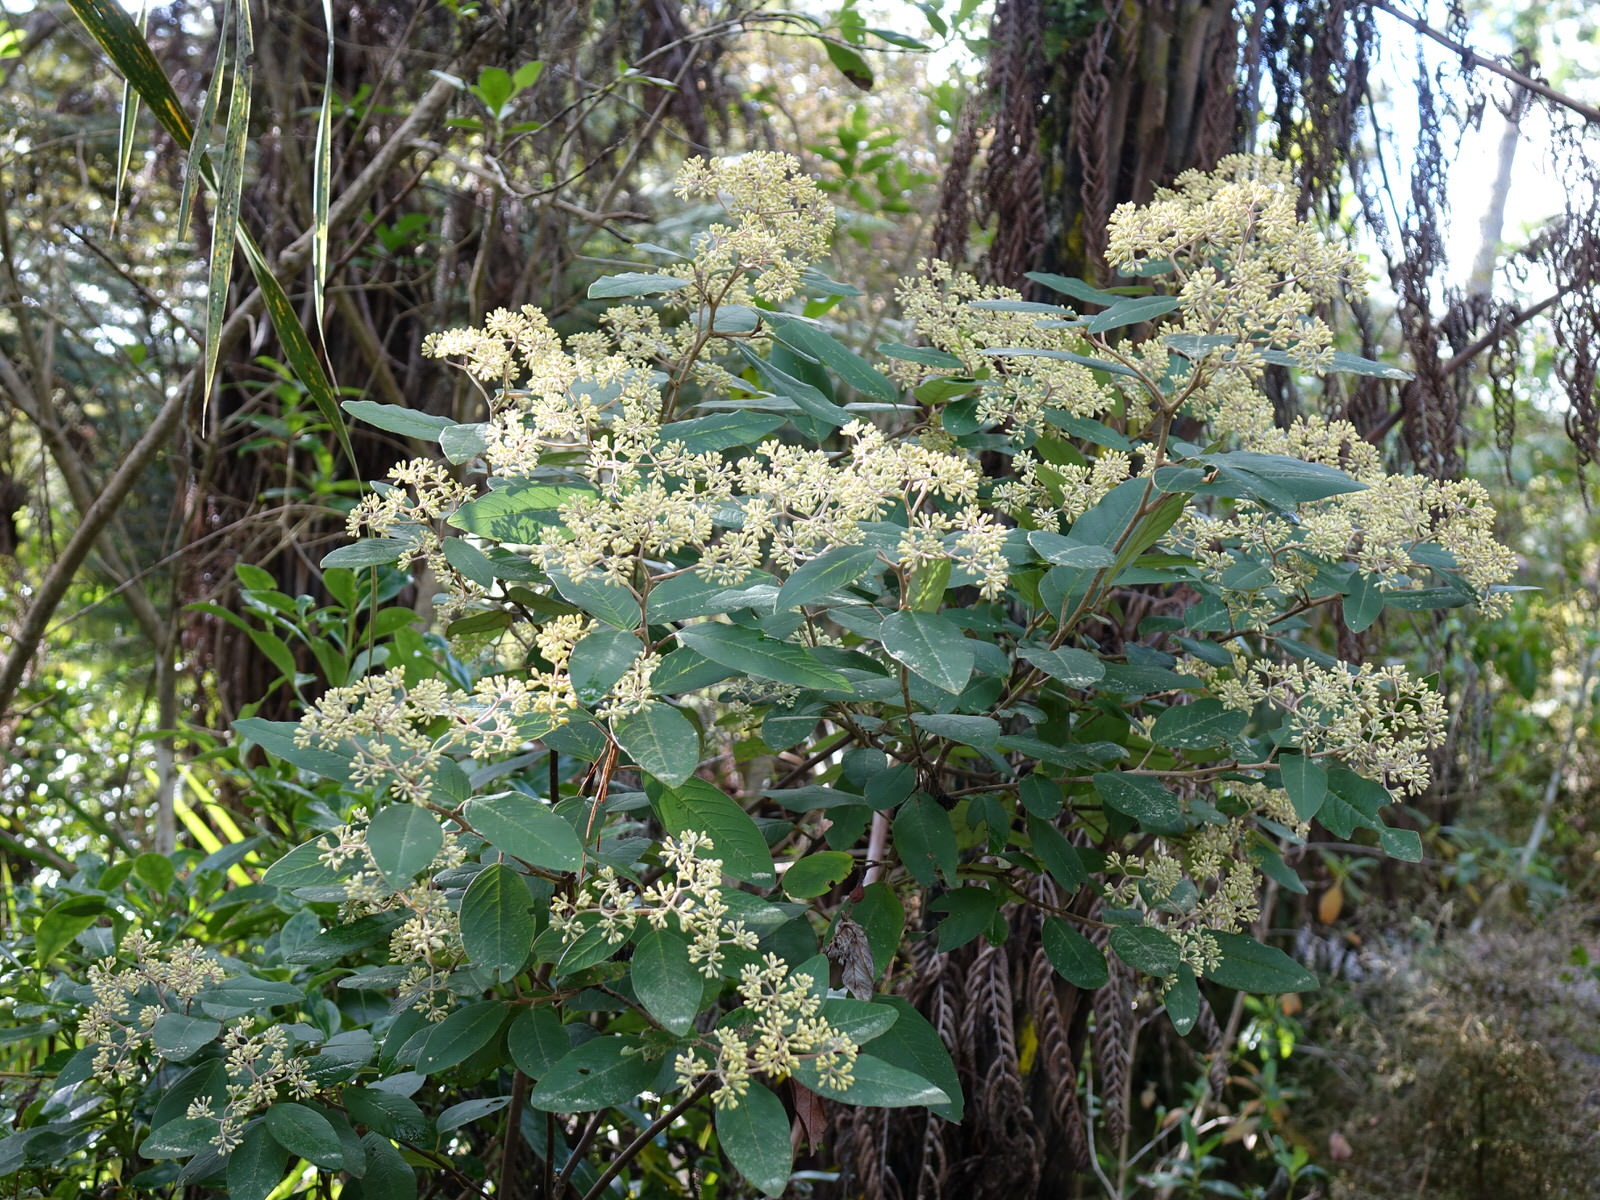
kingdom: Plantae
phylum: Tracheophyta
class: Magnoliopsida
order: Rosales
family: Rhamnaceae
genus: Pomaderris
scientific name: Pomaderris kumeraho
